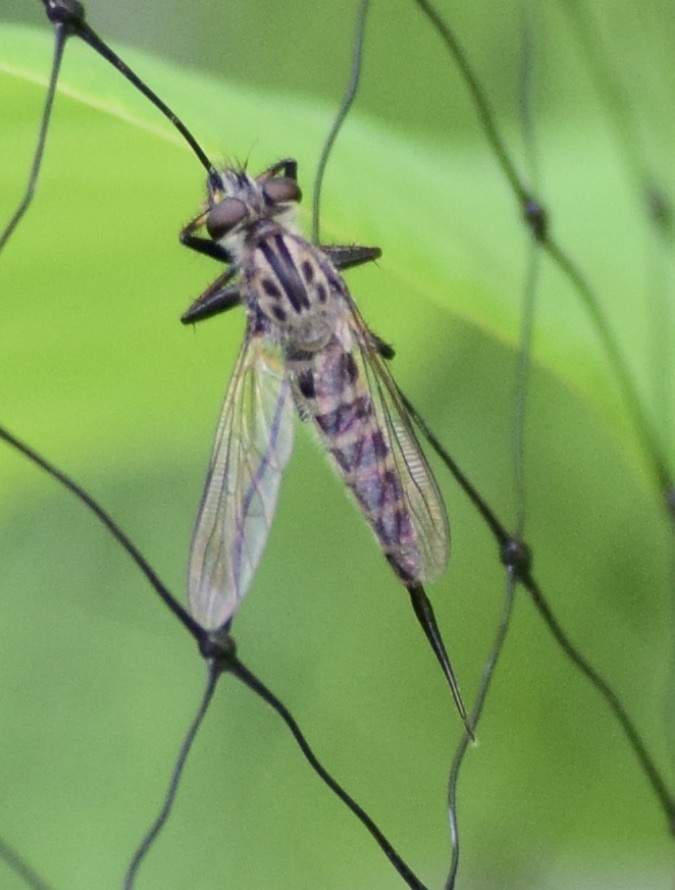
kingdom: Animalia
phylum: Arthropoda
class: Insecta
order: Diptera
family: Asilidae
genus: Efferia
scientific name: Efferia aestuans
